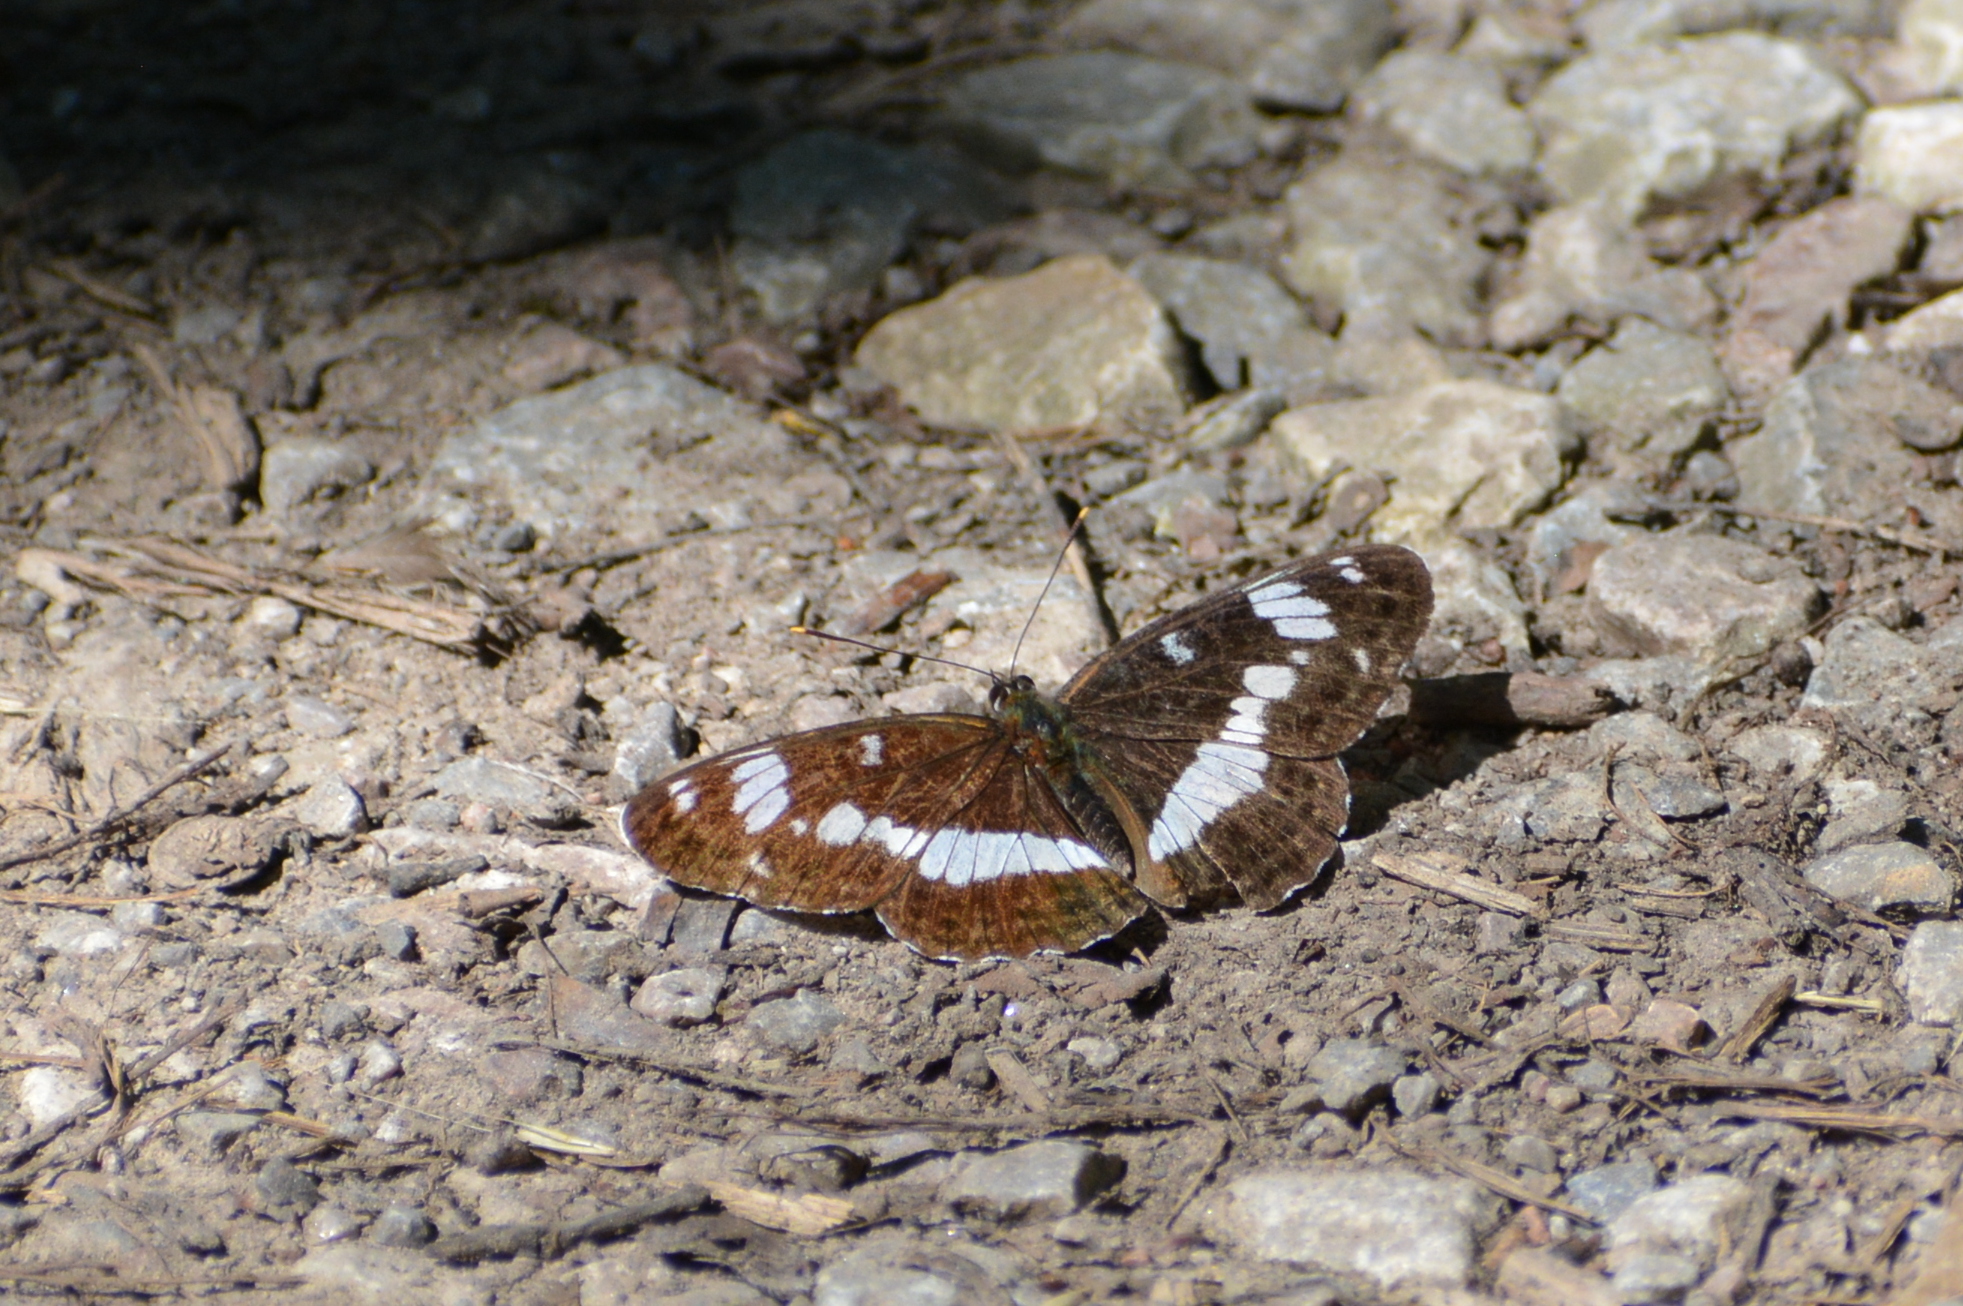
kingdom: Animalia
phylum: Arthropoda
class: Insecta
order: Lepidoptera
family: Nymphalidae
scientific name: Nymphalidae
